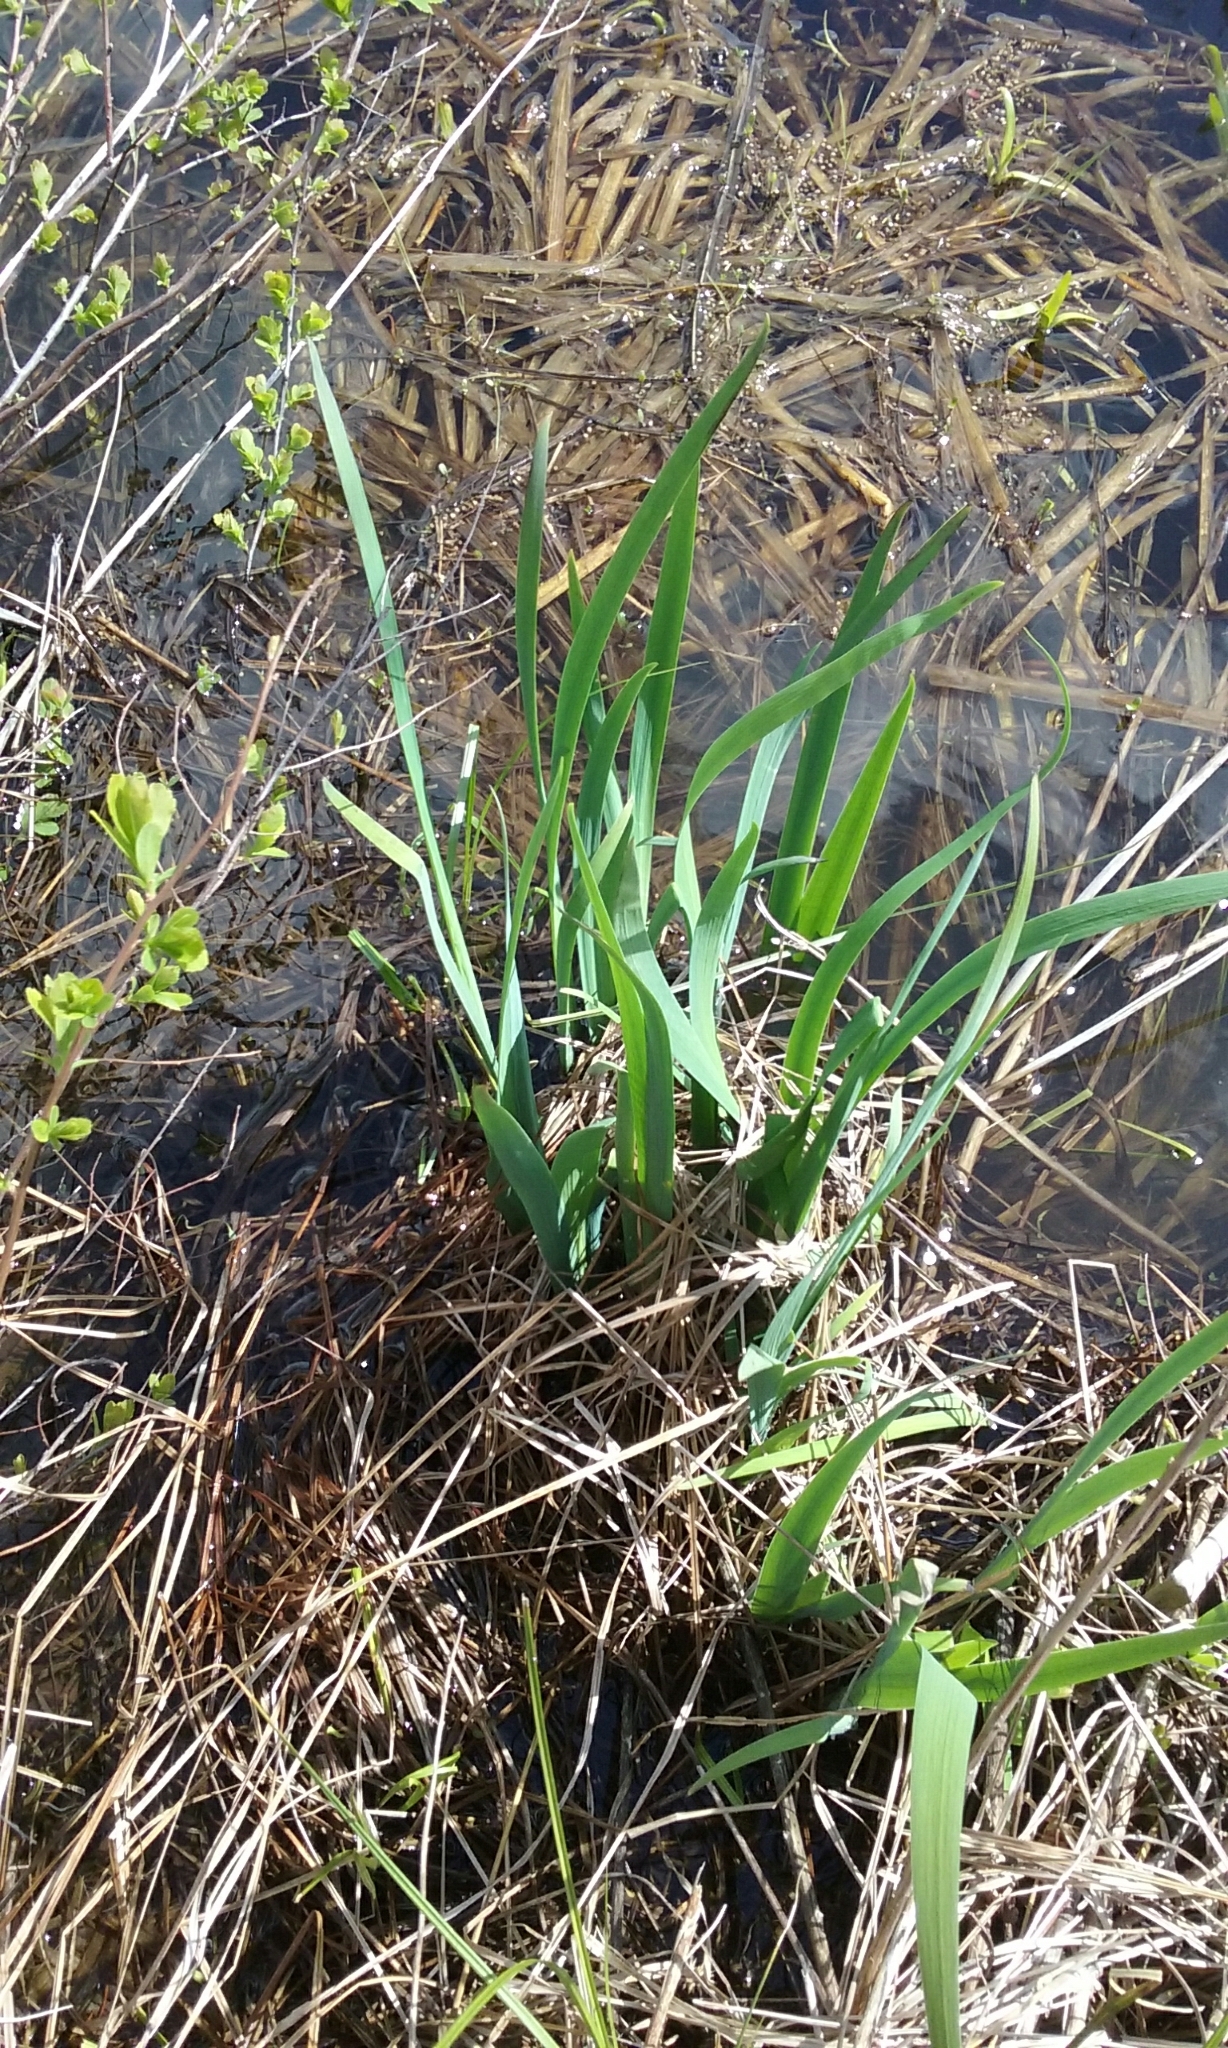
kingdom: Plantae
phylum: Tracheophyta
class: Liliopsida
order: Asparagales
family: Iridaceae
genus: Iris
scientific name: Iris
